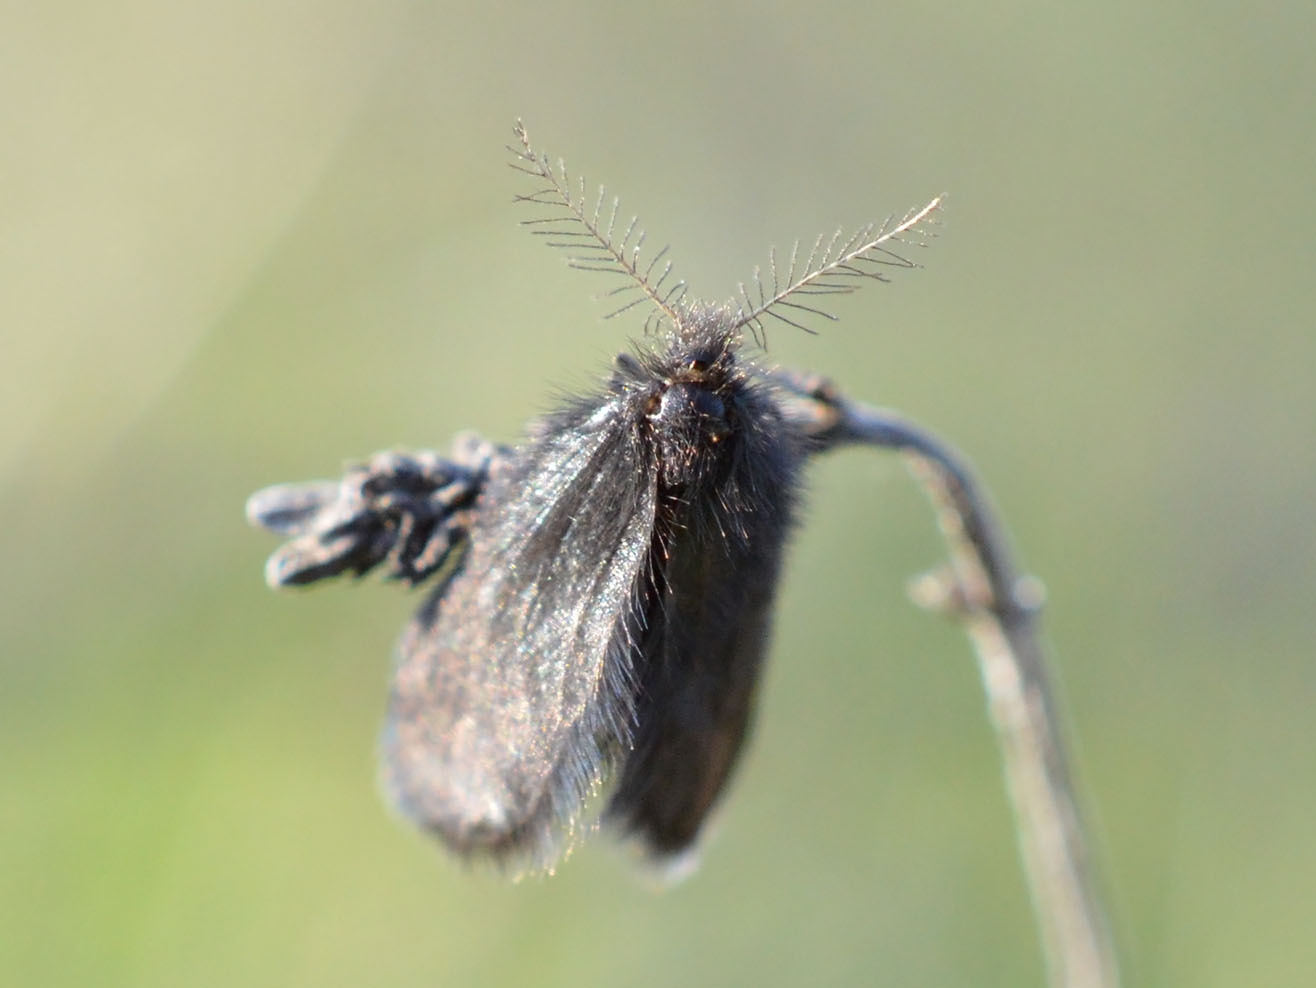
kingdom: Animalia
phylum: Arthropoda
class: Insecta
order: Lepidoptera
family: Psychidae
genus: Epichnopterix
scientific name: Epichnopterix plumella
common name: Round-winged sweep
